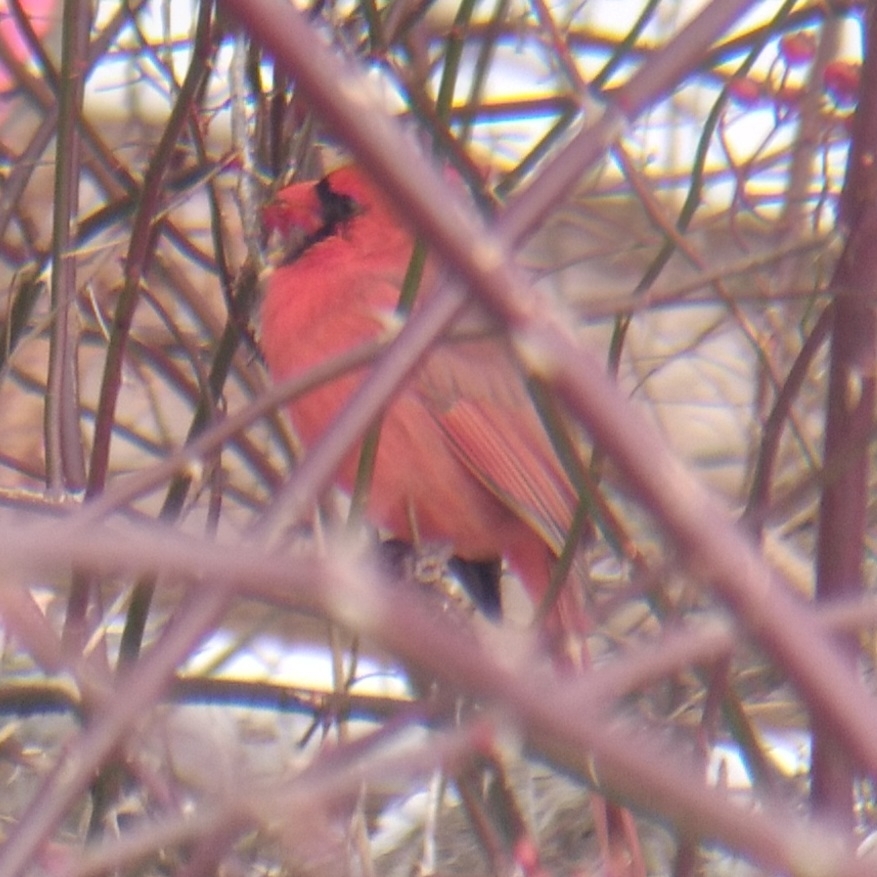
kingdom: Animalia
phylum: Chordata
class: Aves
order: Passeriformes
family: Cardinalidae
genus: Cardinalis
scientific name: Cardinalis cardinalis
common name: Northern cardinal
